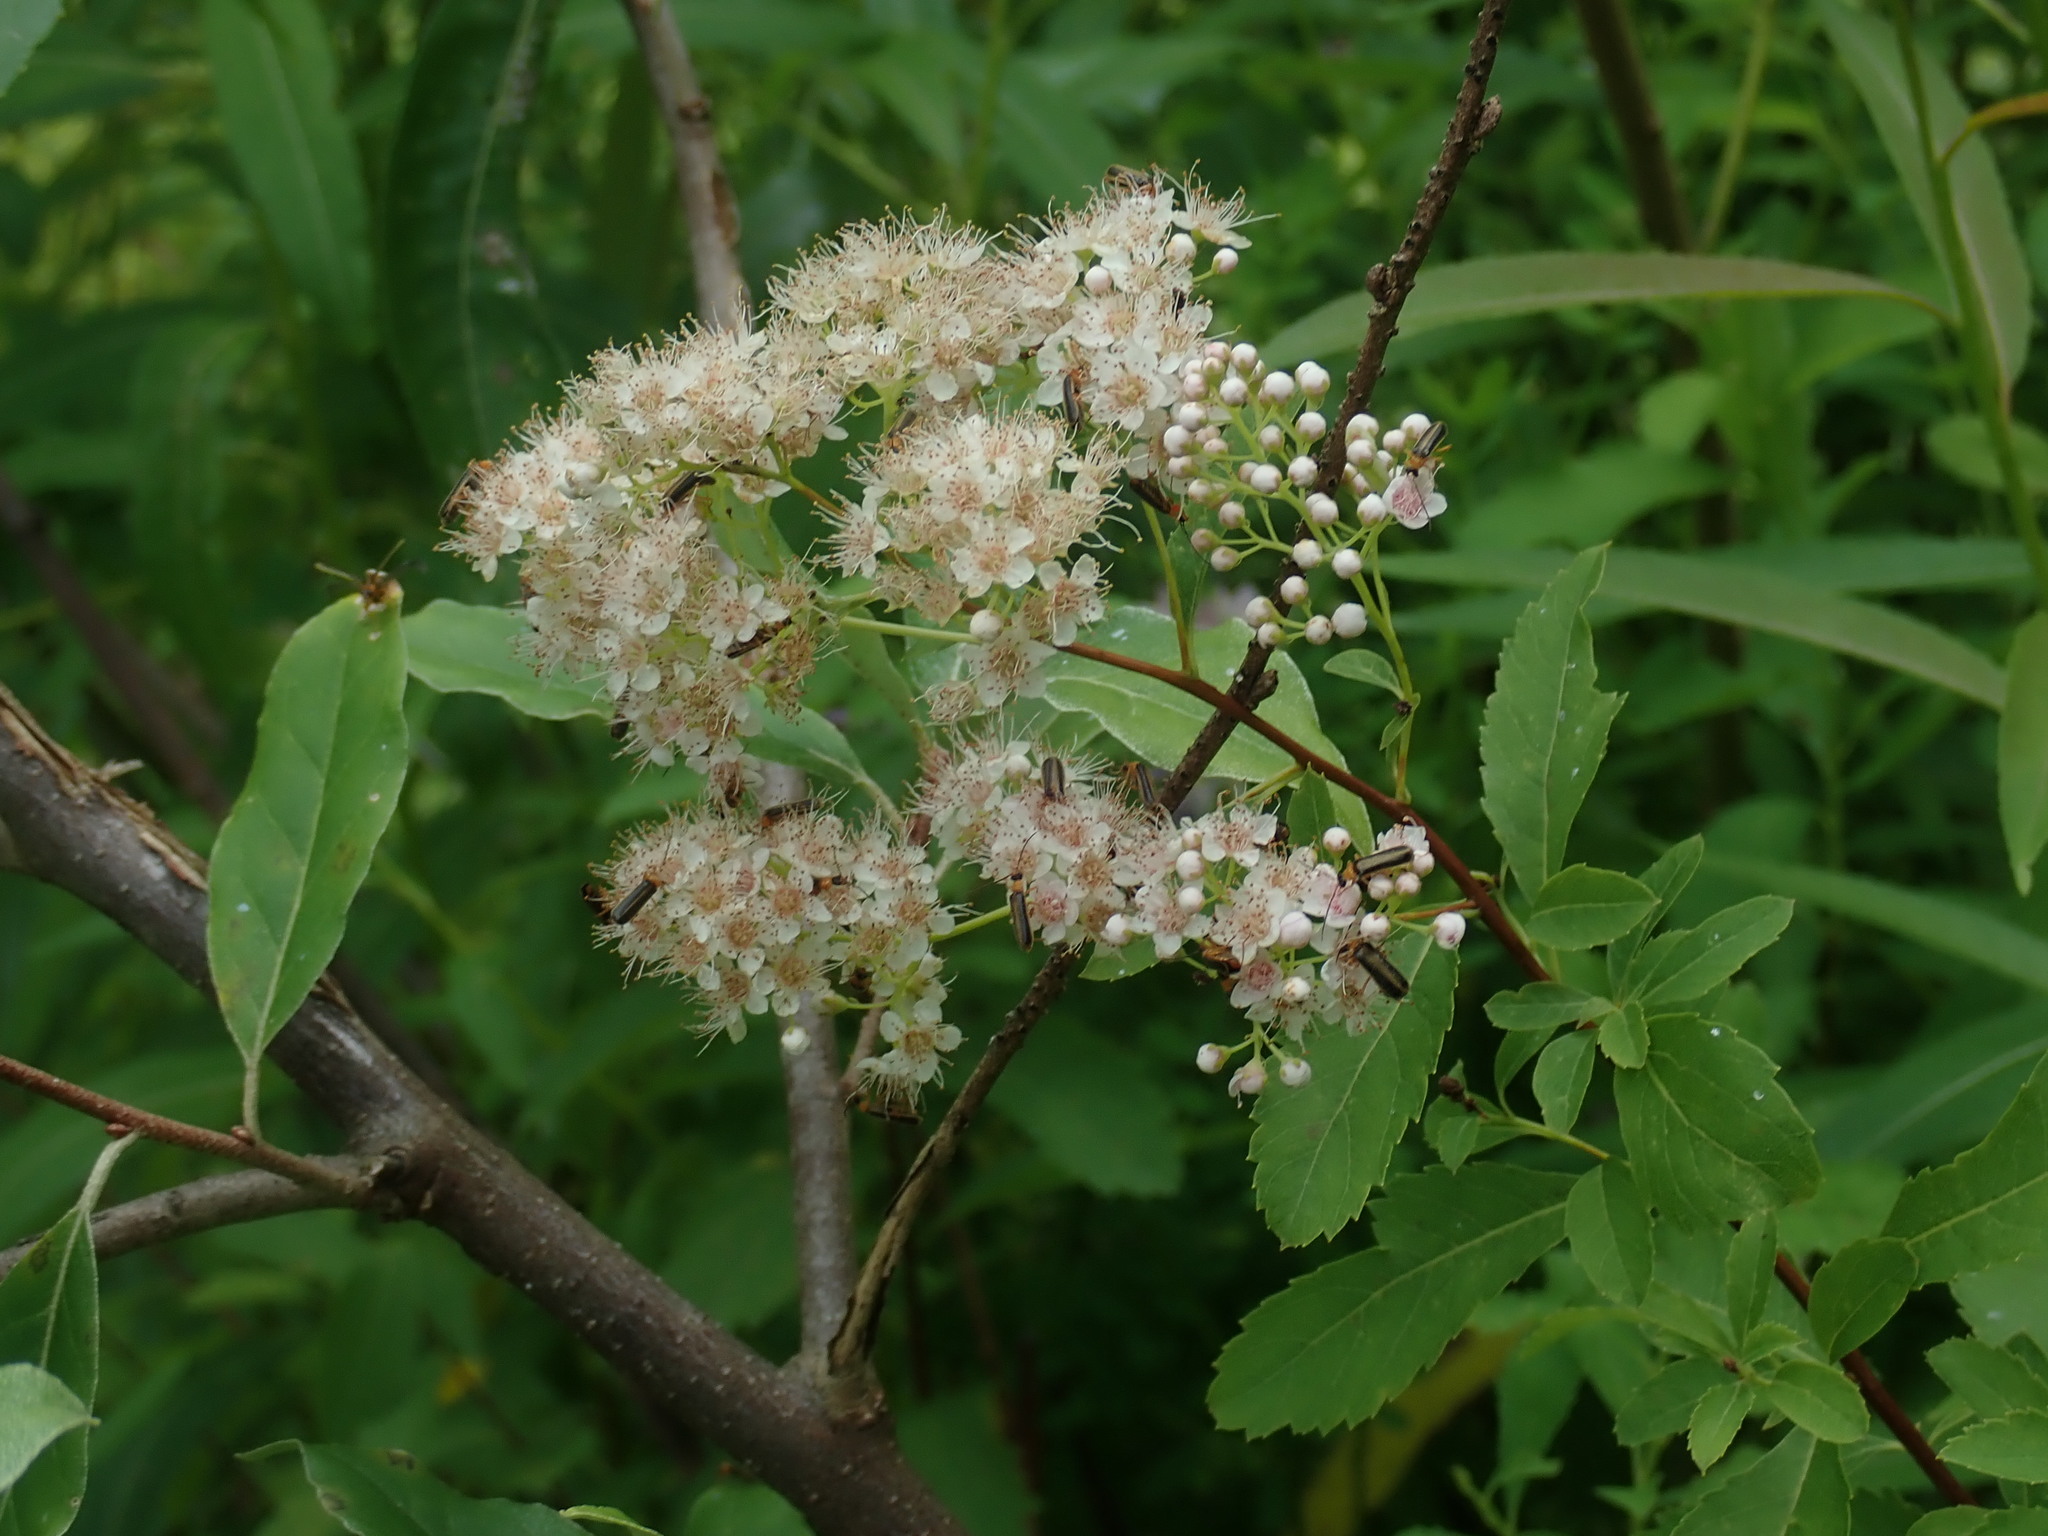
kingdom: Plantae
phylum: Tracheophyta
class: Magnoliopsida
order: Rosales
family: Rosaceae
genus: Spiraea
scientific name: Spiraea alba
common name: Pale bridewort
